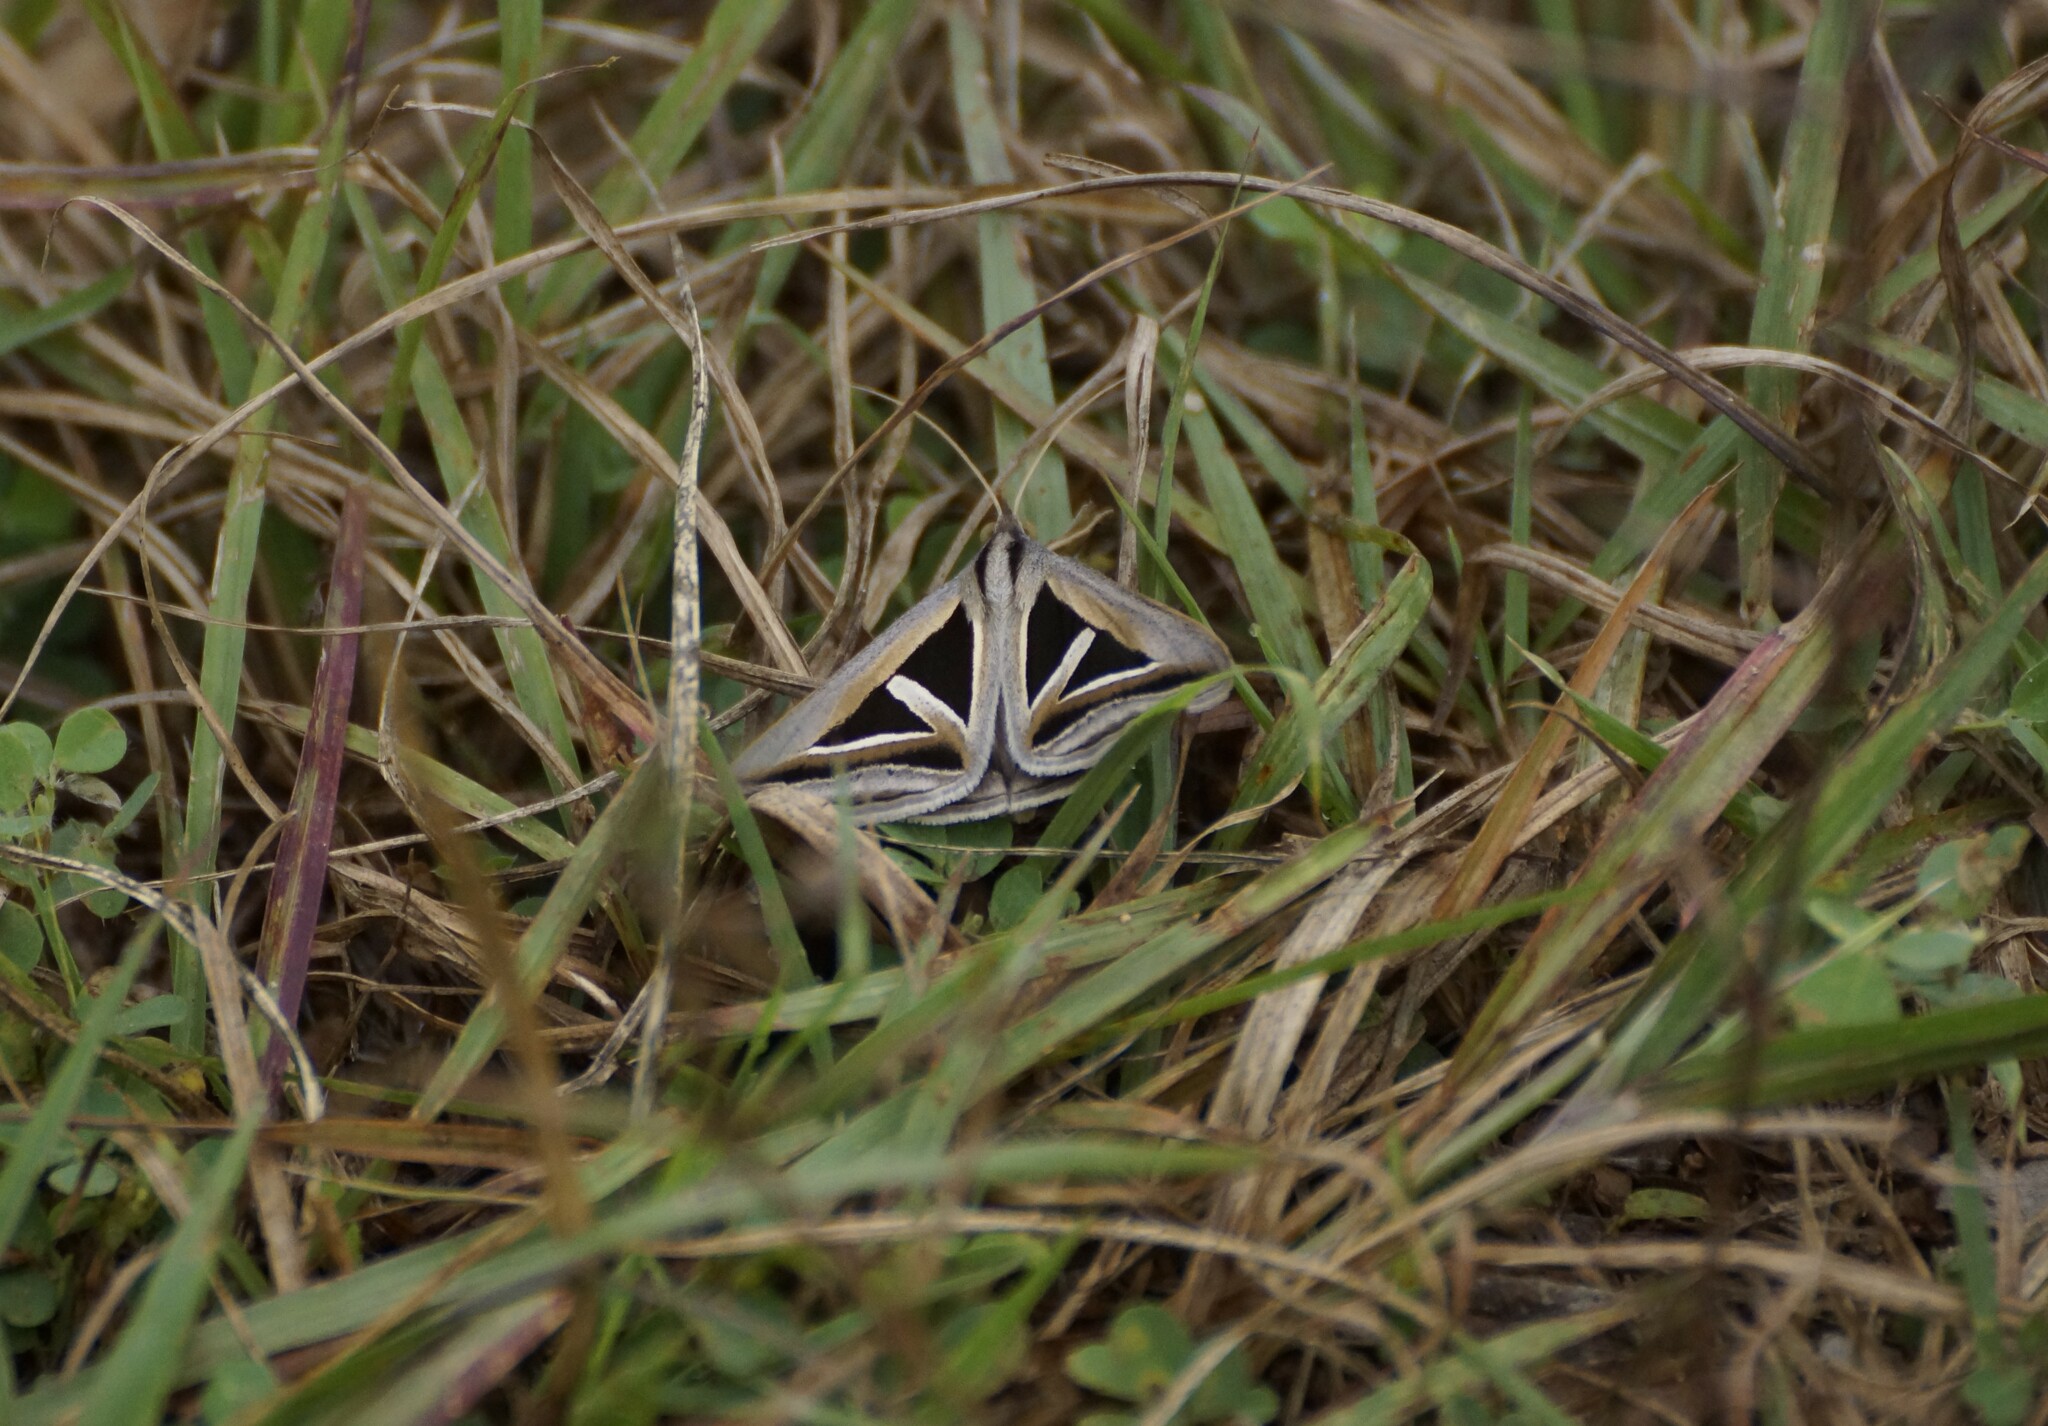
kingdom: Animalia
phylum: Arthropoda
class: Insecta
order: Lepidoptera
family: Erebidae
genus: Trigonodes
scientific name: Trigonodes hyppasia
